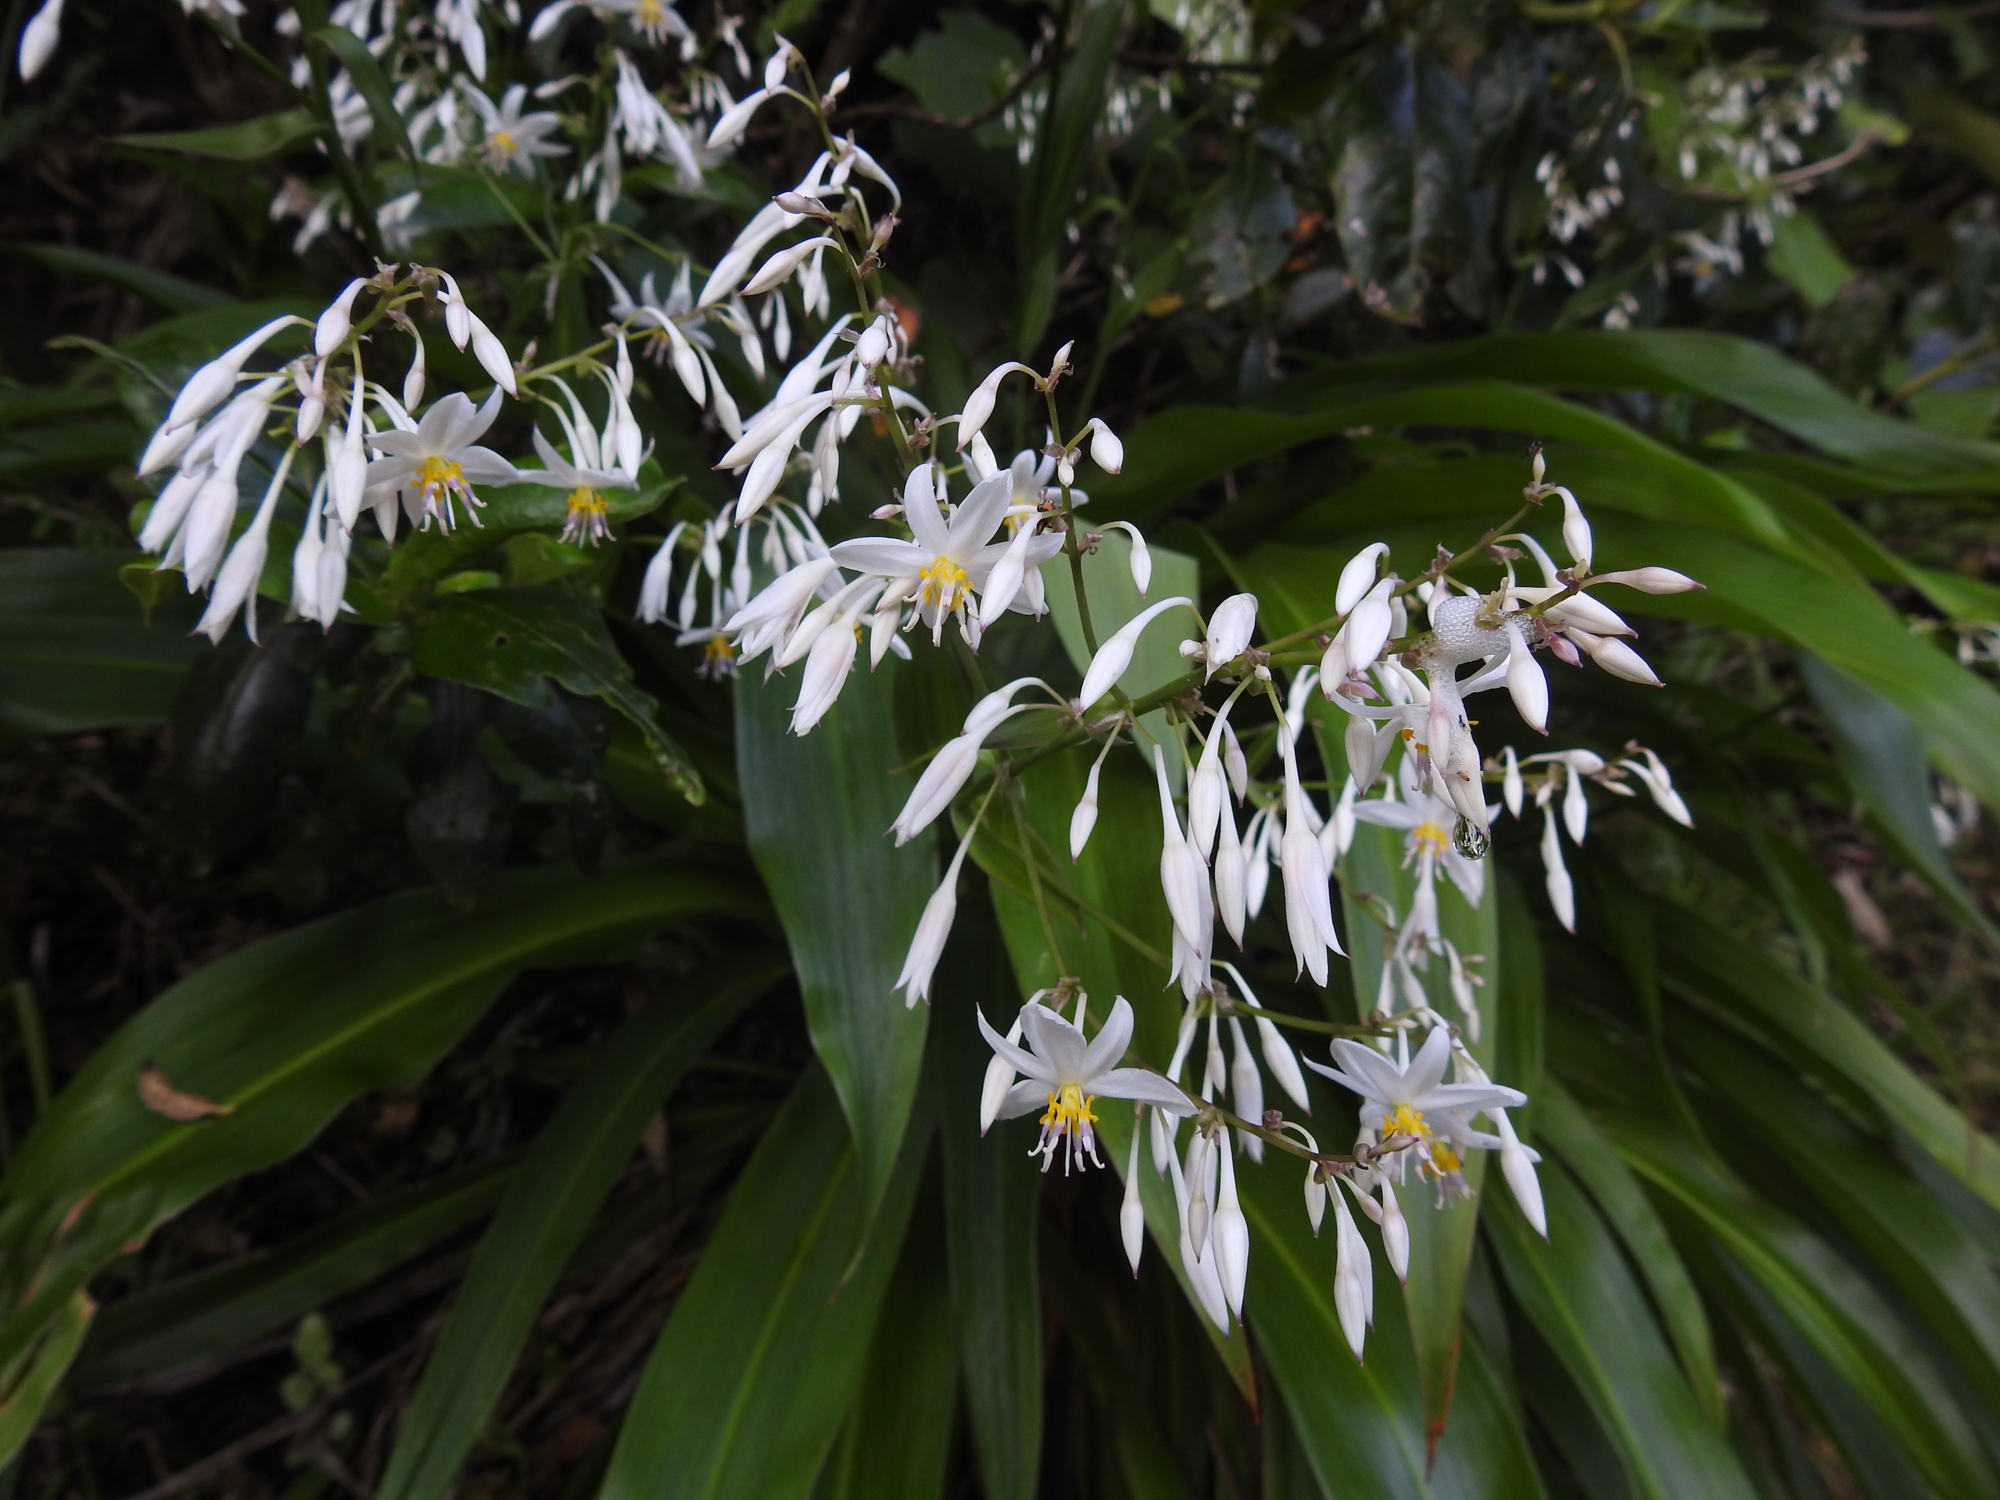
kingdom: Plantae
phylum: Tracheophyta
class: Liliopsida
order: Asparagales
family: Asparagaceae
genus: Arthropodium
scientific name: Arthropodium cirratum
